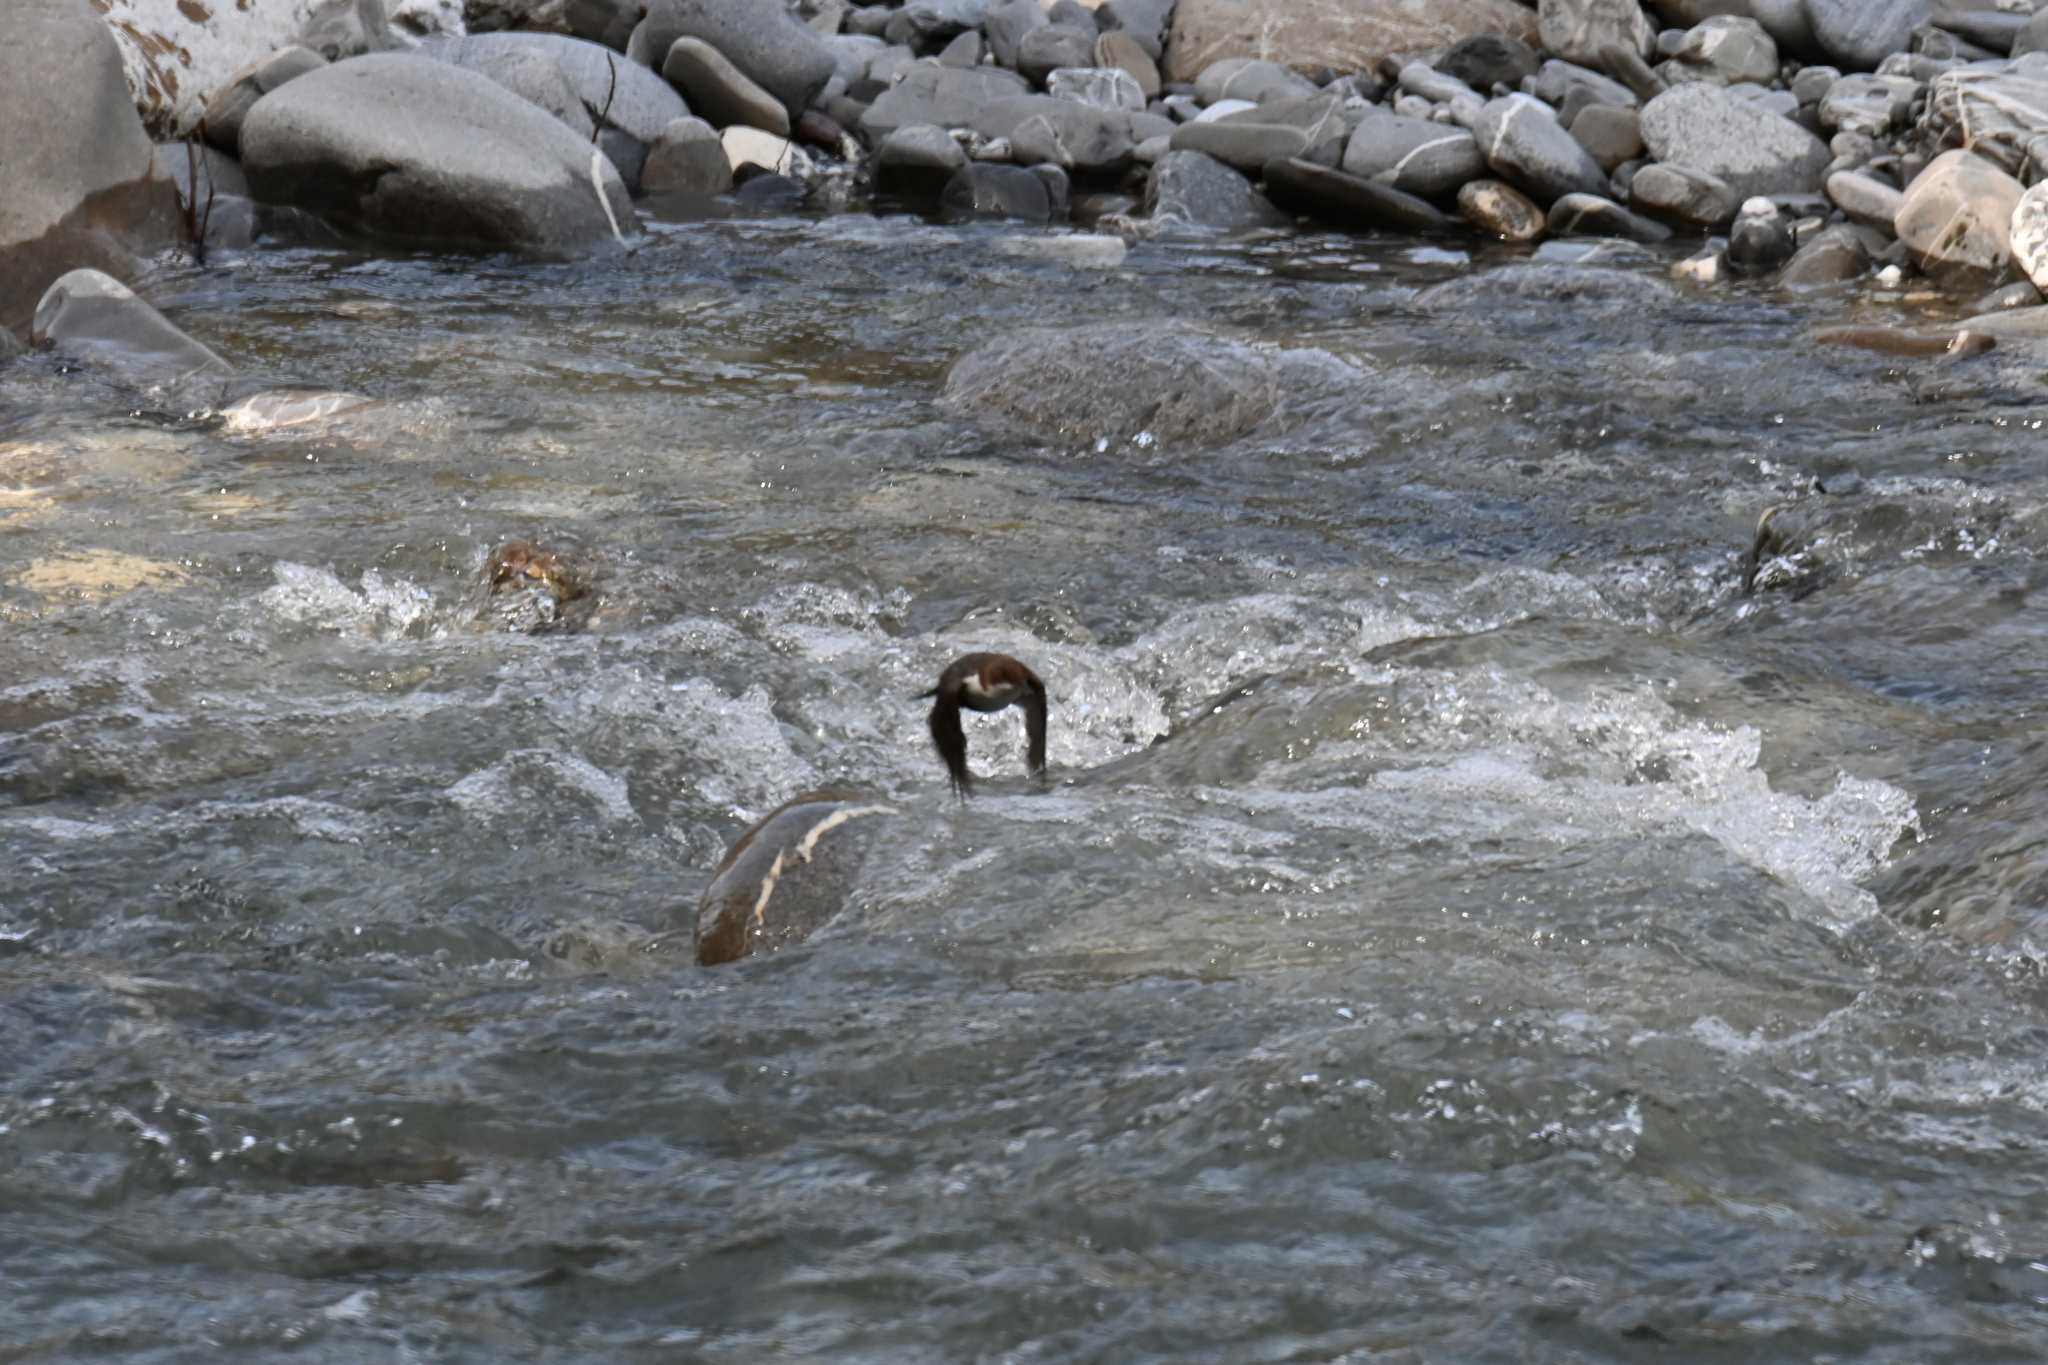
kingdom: Animalia
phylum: Chordata
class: Aves
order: Passeriformes
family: Cinclidae
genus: Cinclus
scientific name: Cinclus cinclus
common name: White-throated dipper
